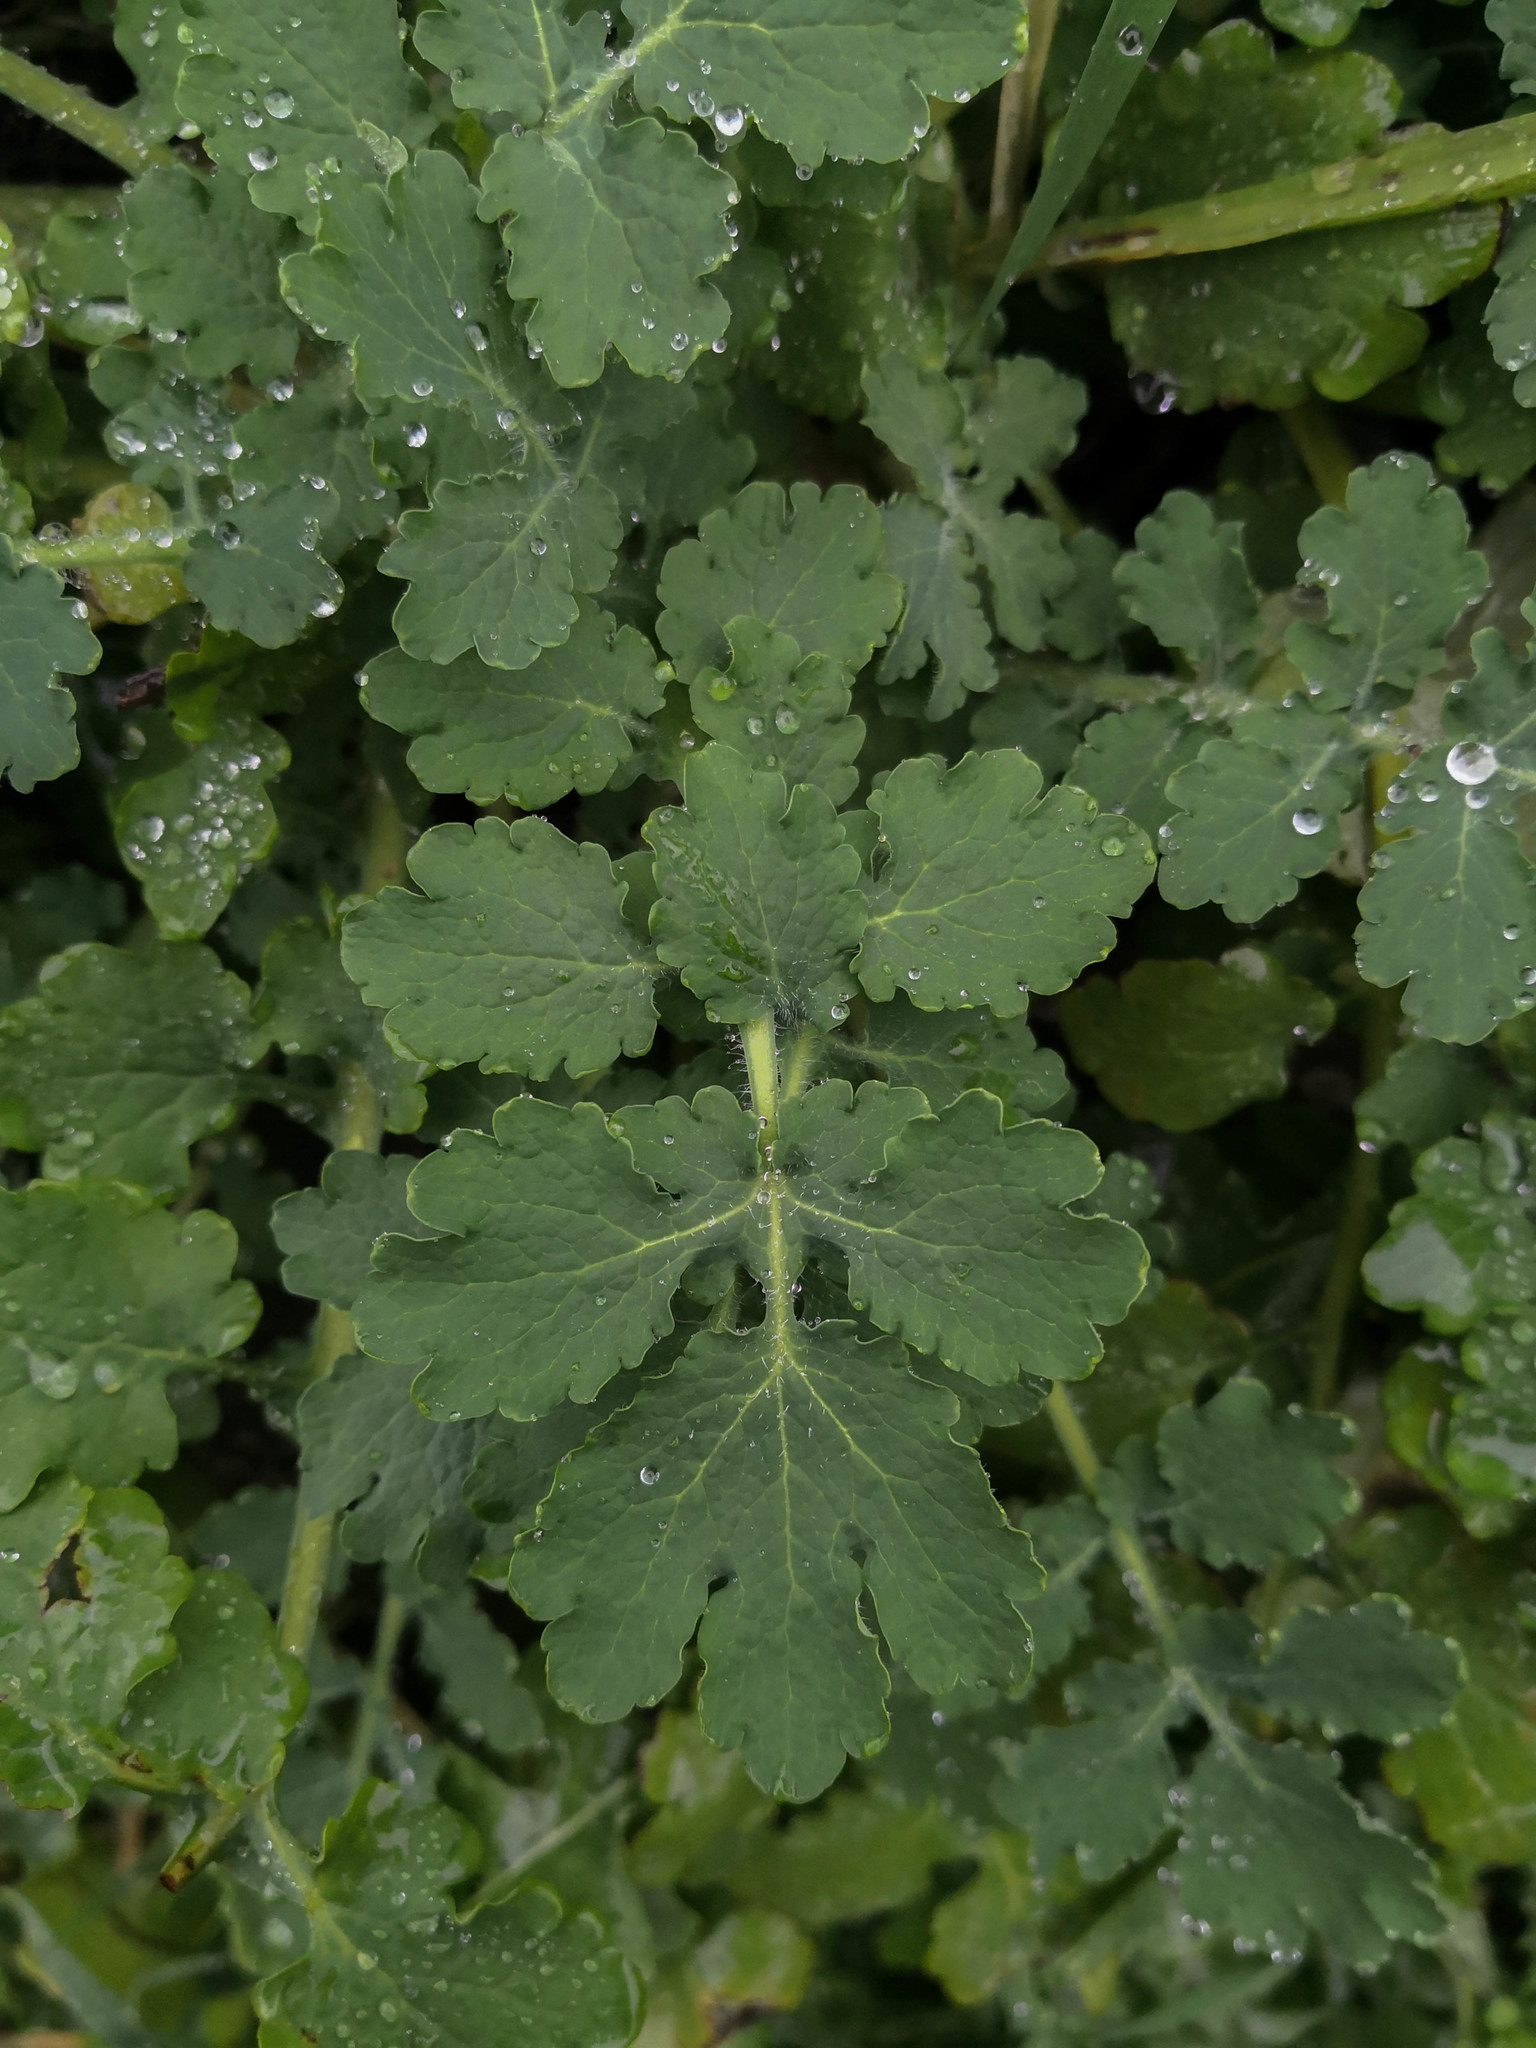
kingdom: Plantae
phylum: Tracheophyta
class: Magnoliopsida
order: Ranunculales
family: Papaveraceae
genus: Chelidonium
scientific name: Chelidonium majus
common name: Greater celandine
